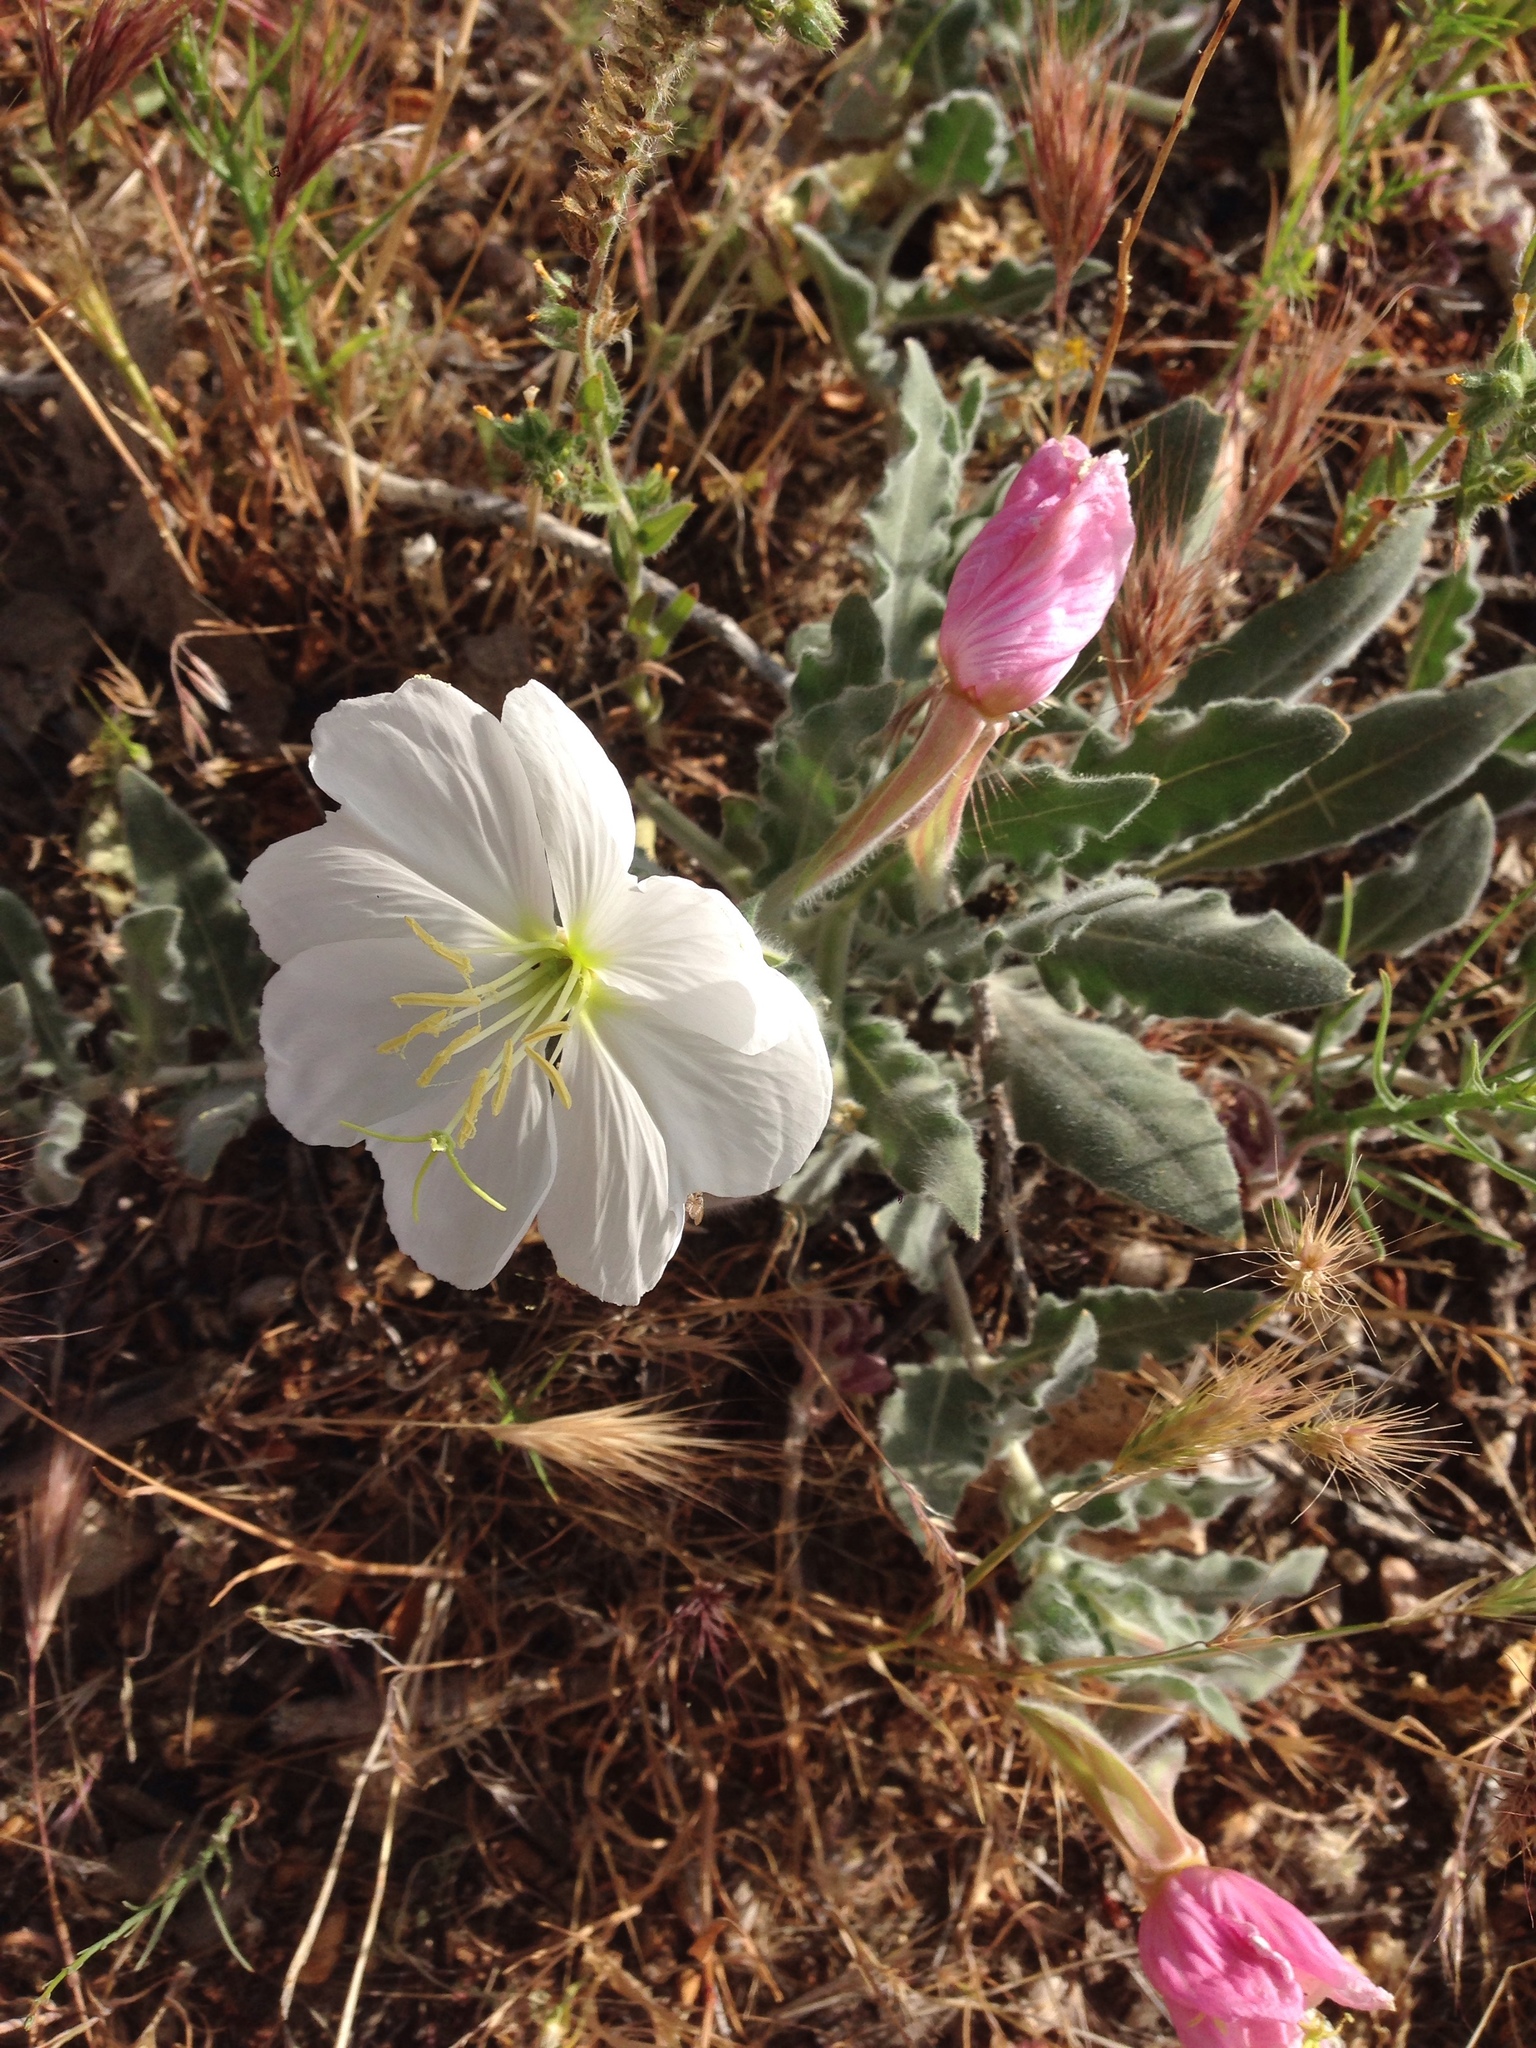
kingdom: Plantae
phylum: Tracheophyta
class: Magnoliopsida
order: Myrtales
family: Onagraceae
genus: Oenothera
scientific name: Oenothera californica
